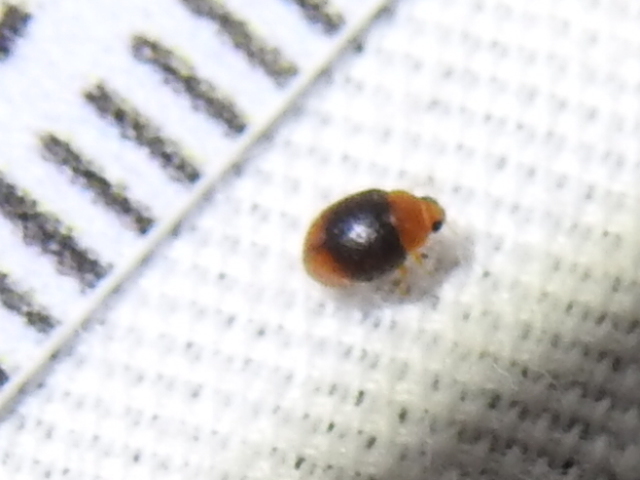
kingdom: Animalia
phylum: Arthropoda
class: Insecta
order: Coleoptera
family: Coccinellidae
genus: Scymnus
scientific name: Scymnus semiruber
